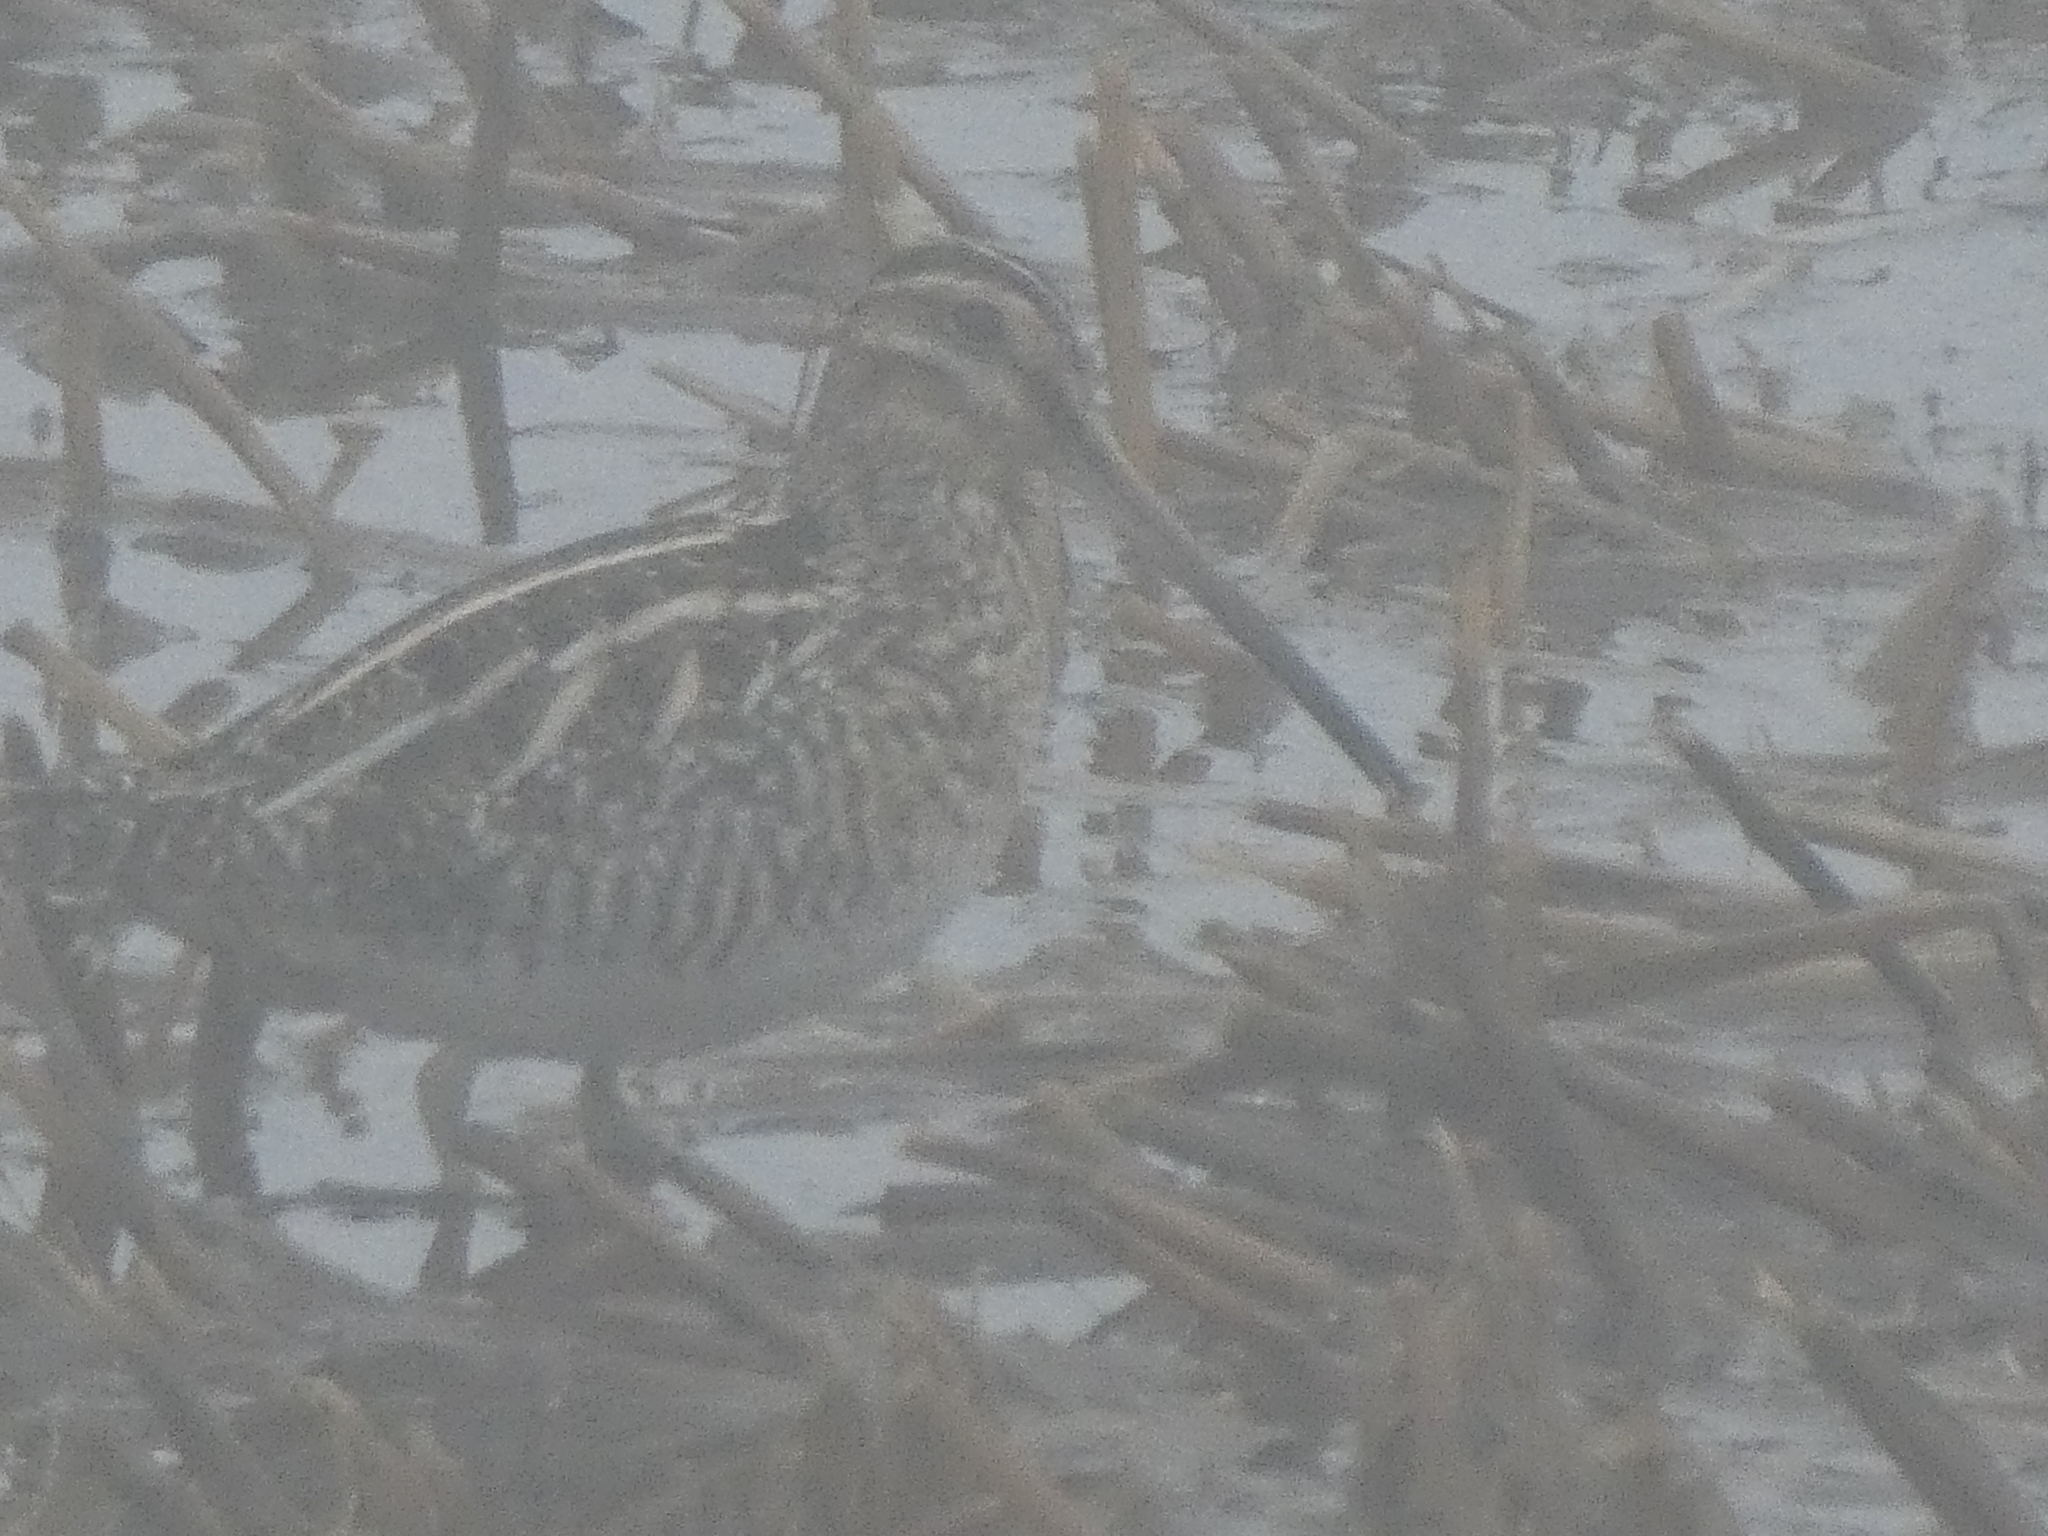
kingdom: Animalia
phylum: Chordata
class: Aves
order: Charadriiformes
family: Scolopacidae
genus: Gallinago
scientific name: Gallinago delicata
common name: Wilson's snipe
